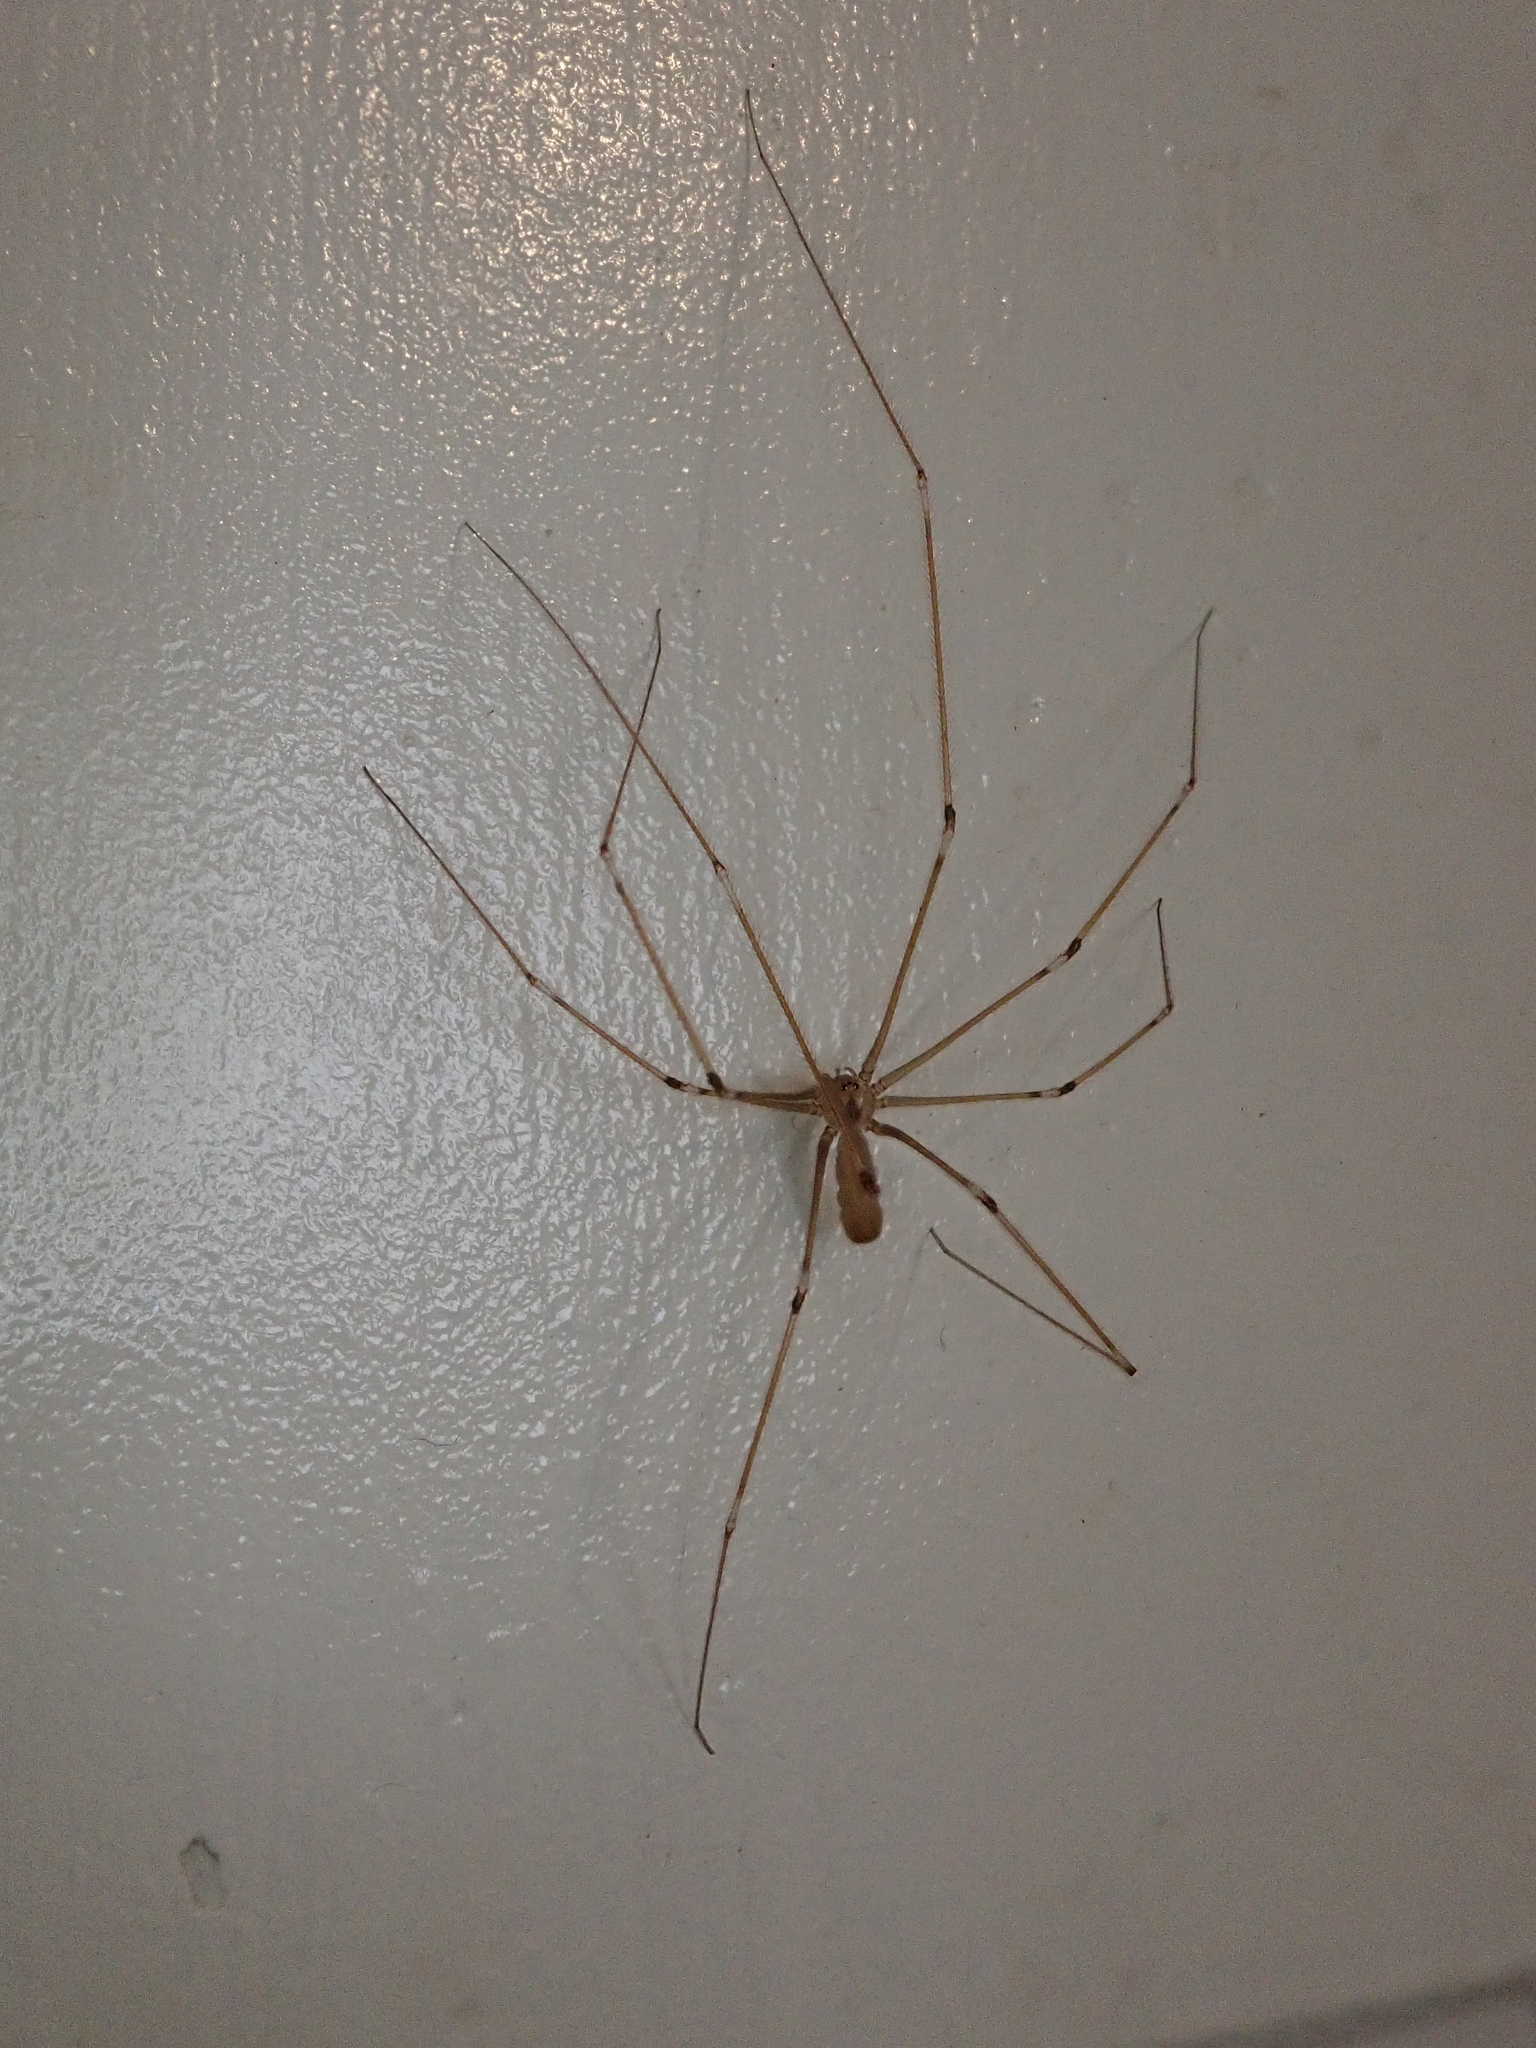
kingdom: Animalia
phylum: Arthropoda
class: Arachnida
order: Araneae
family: Pholcidae
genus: Pholcus
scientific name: Pholcus phalangioides
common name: Longbodied cellar spider
